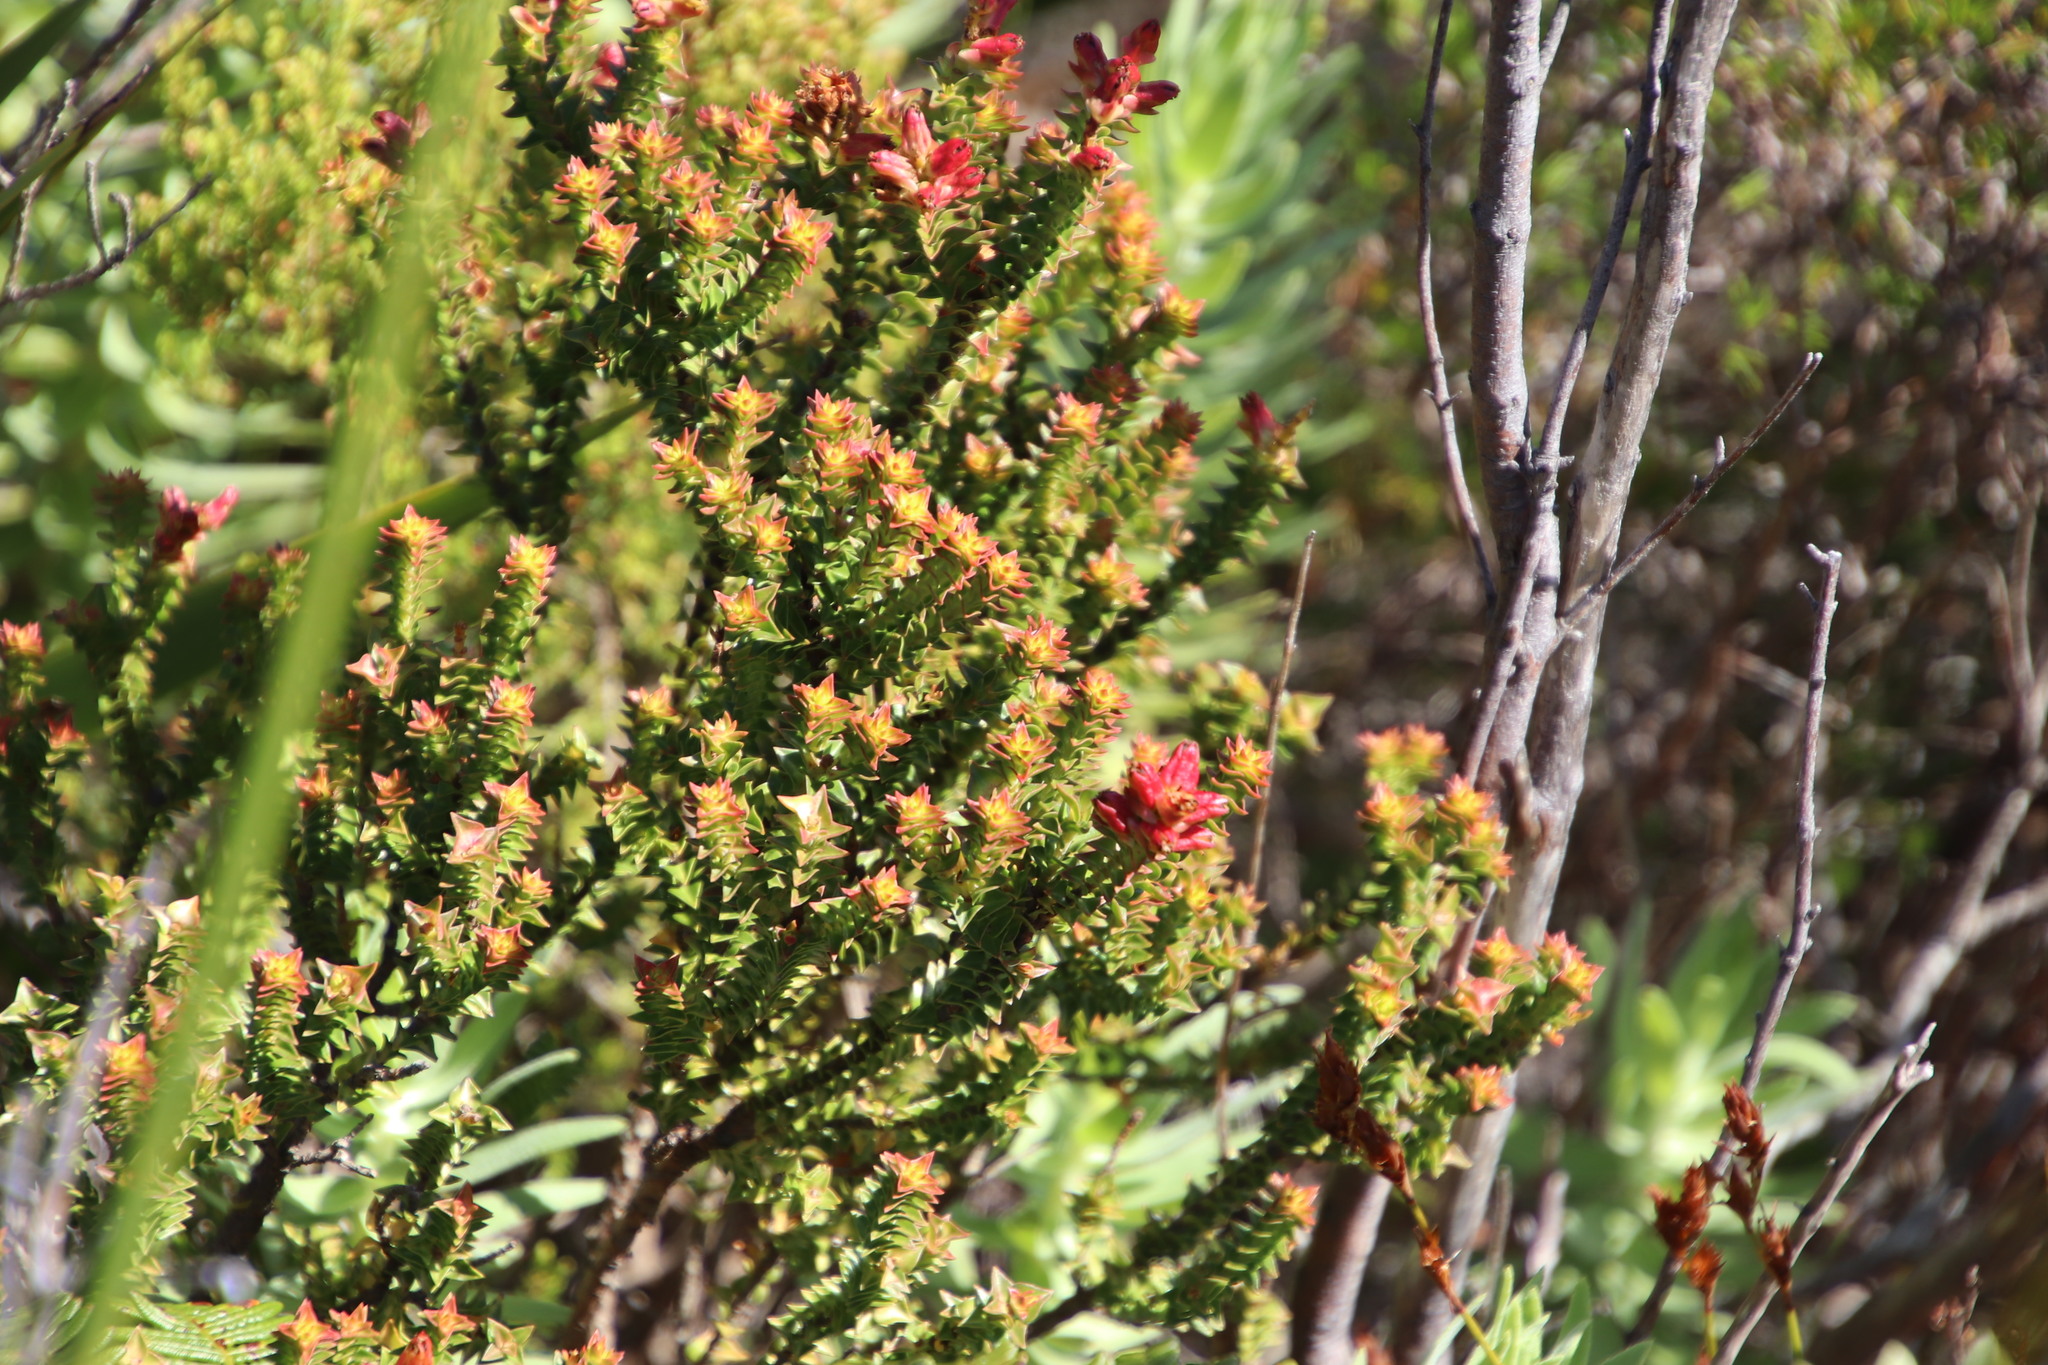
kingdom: Plantae
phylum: Tracheophyta
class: Magnoliopsida
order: Myrtales
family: Penaeaceae
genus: Penaea
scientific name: Penaea mucronata
